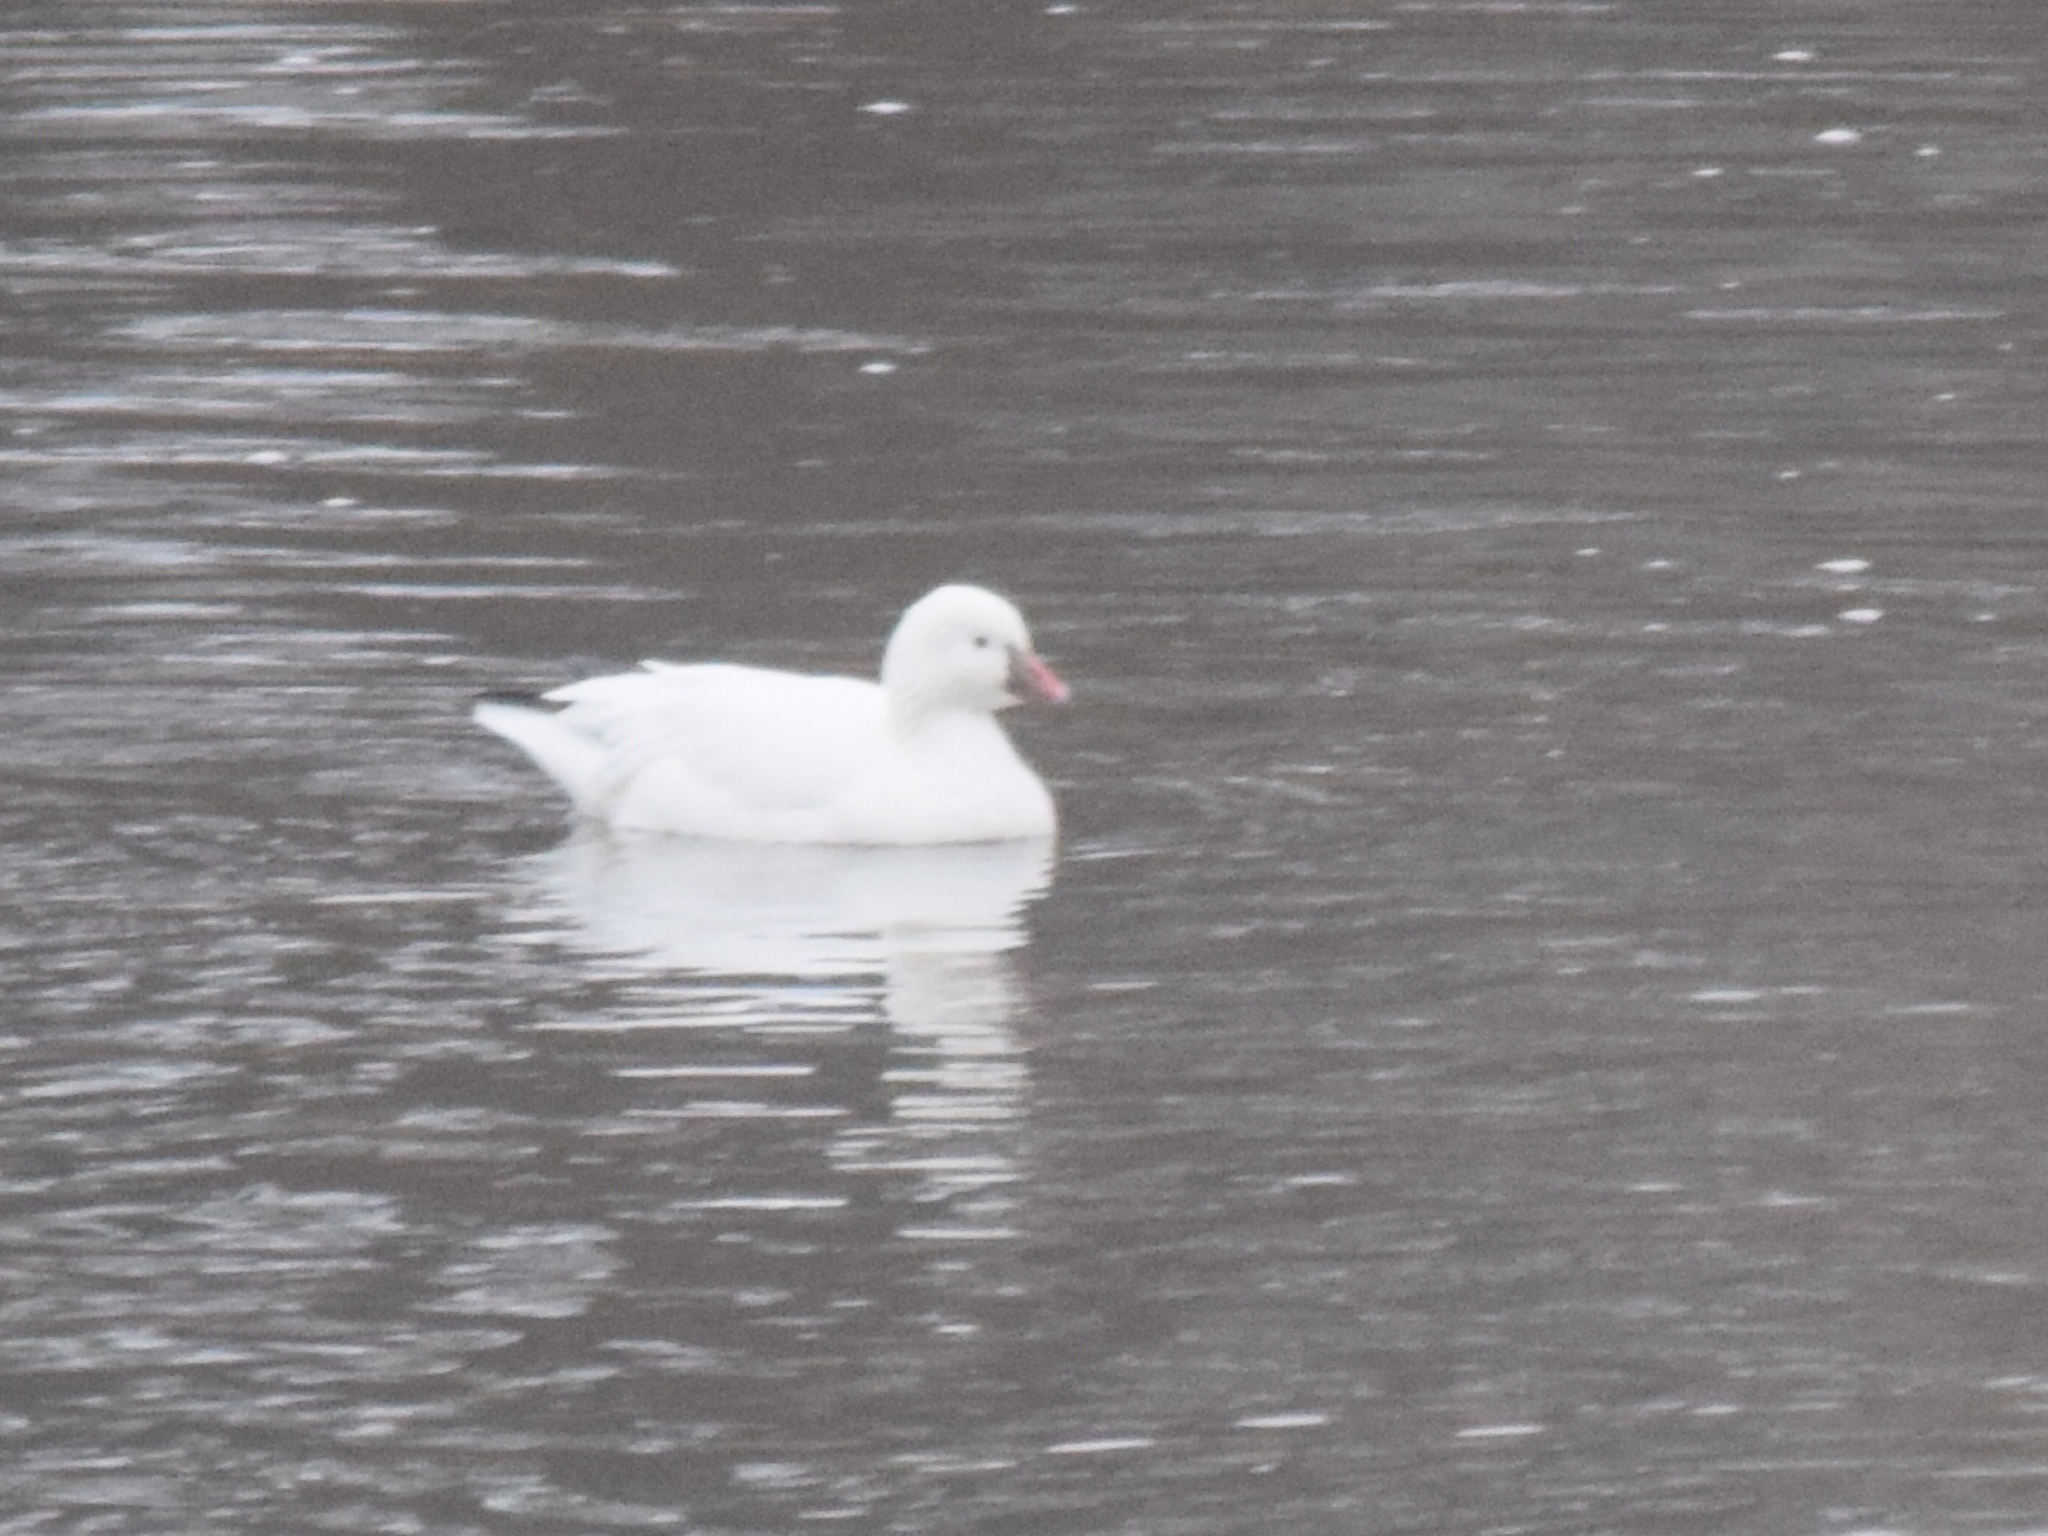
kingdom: Animalia
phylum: Chordata
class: Aves
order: Anseriformes
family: Anatidae
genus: Anser
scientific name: Anser rossii
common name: Ross's goose
